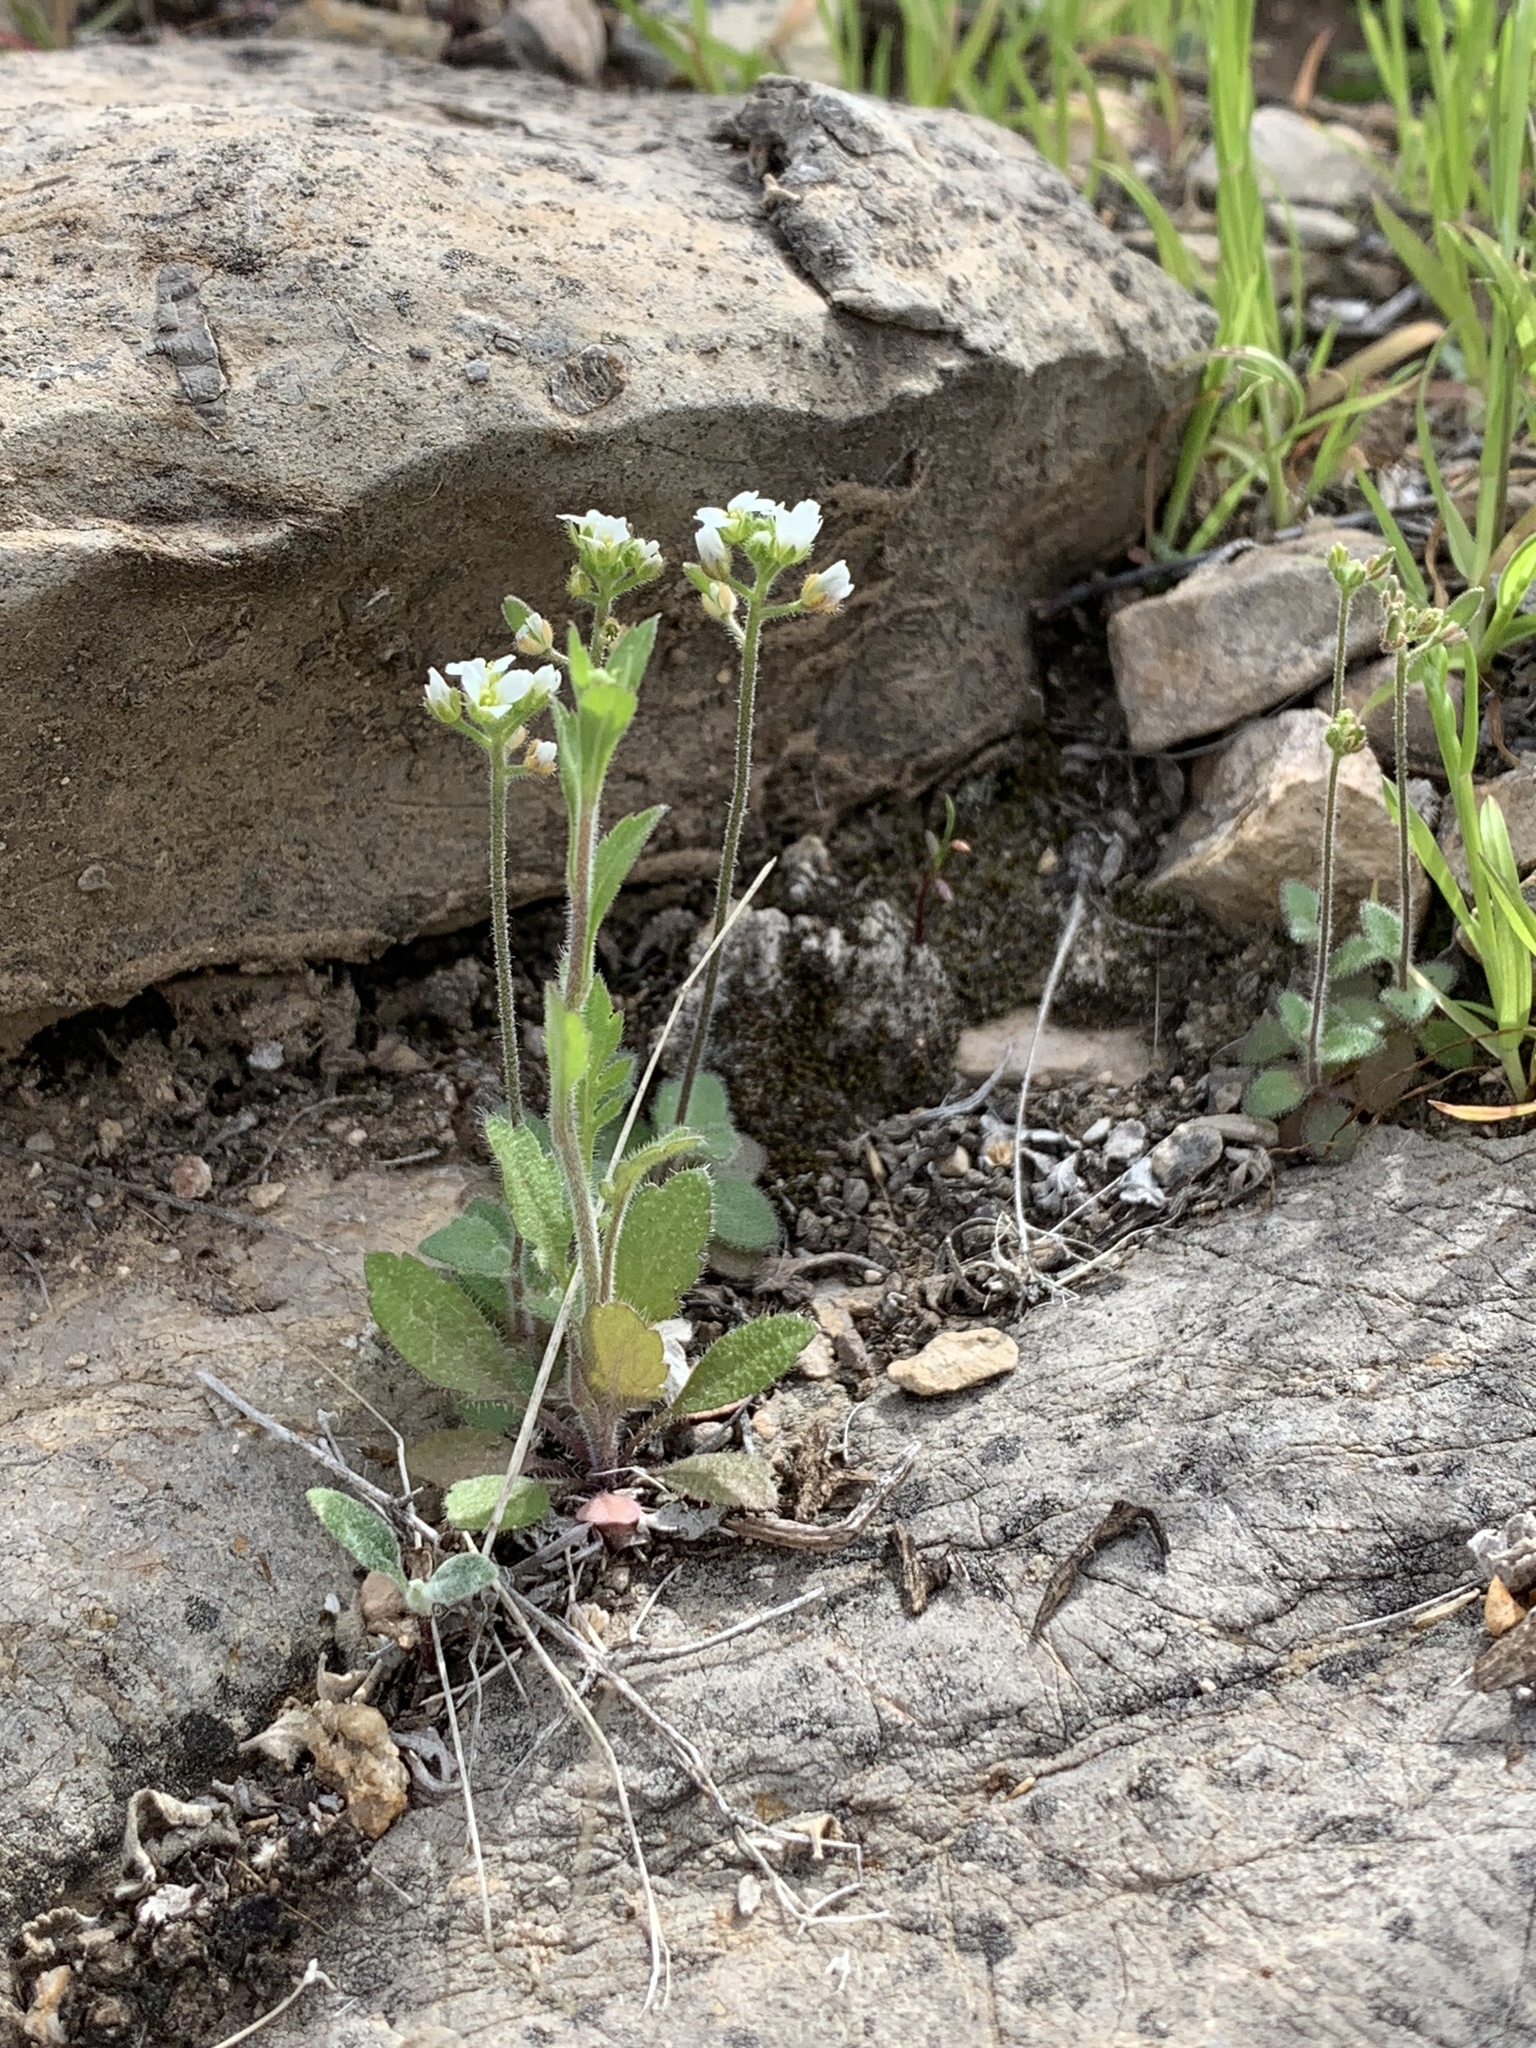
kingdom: Plantae
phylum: Tracheophyta
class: Magnoliopsida
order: Brassicales
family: Brassicaceae
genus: Tomostima
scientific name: Tomostima cuneifolia
